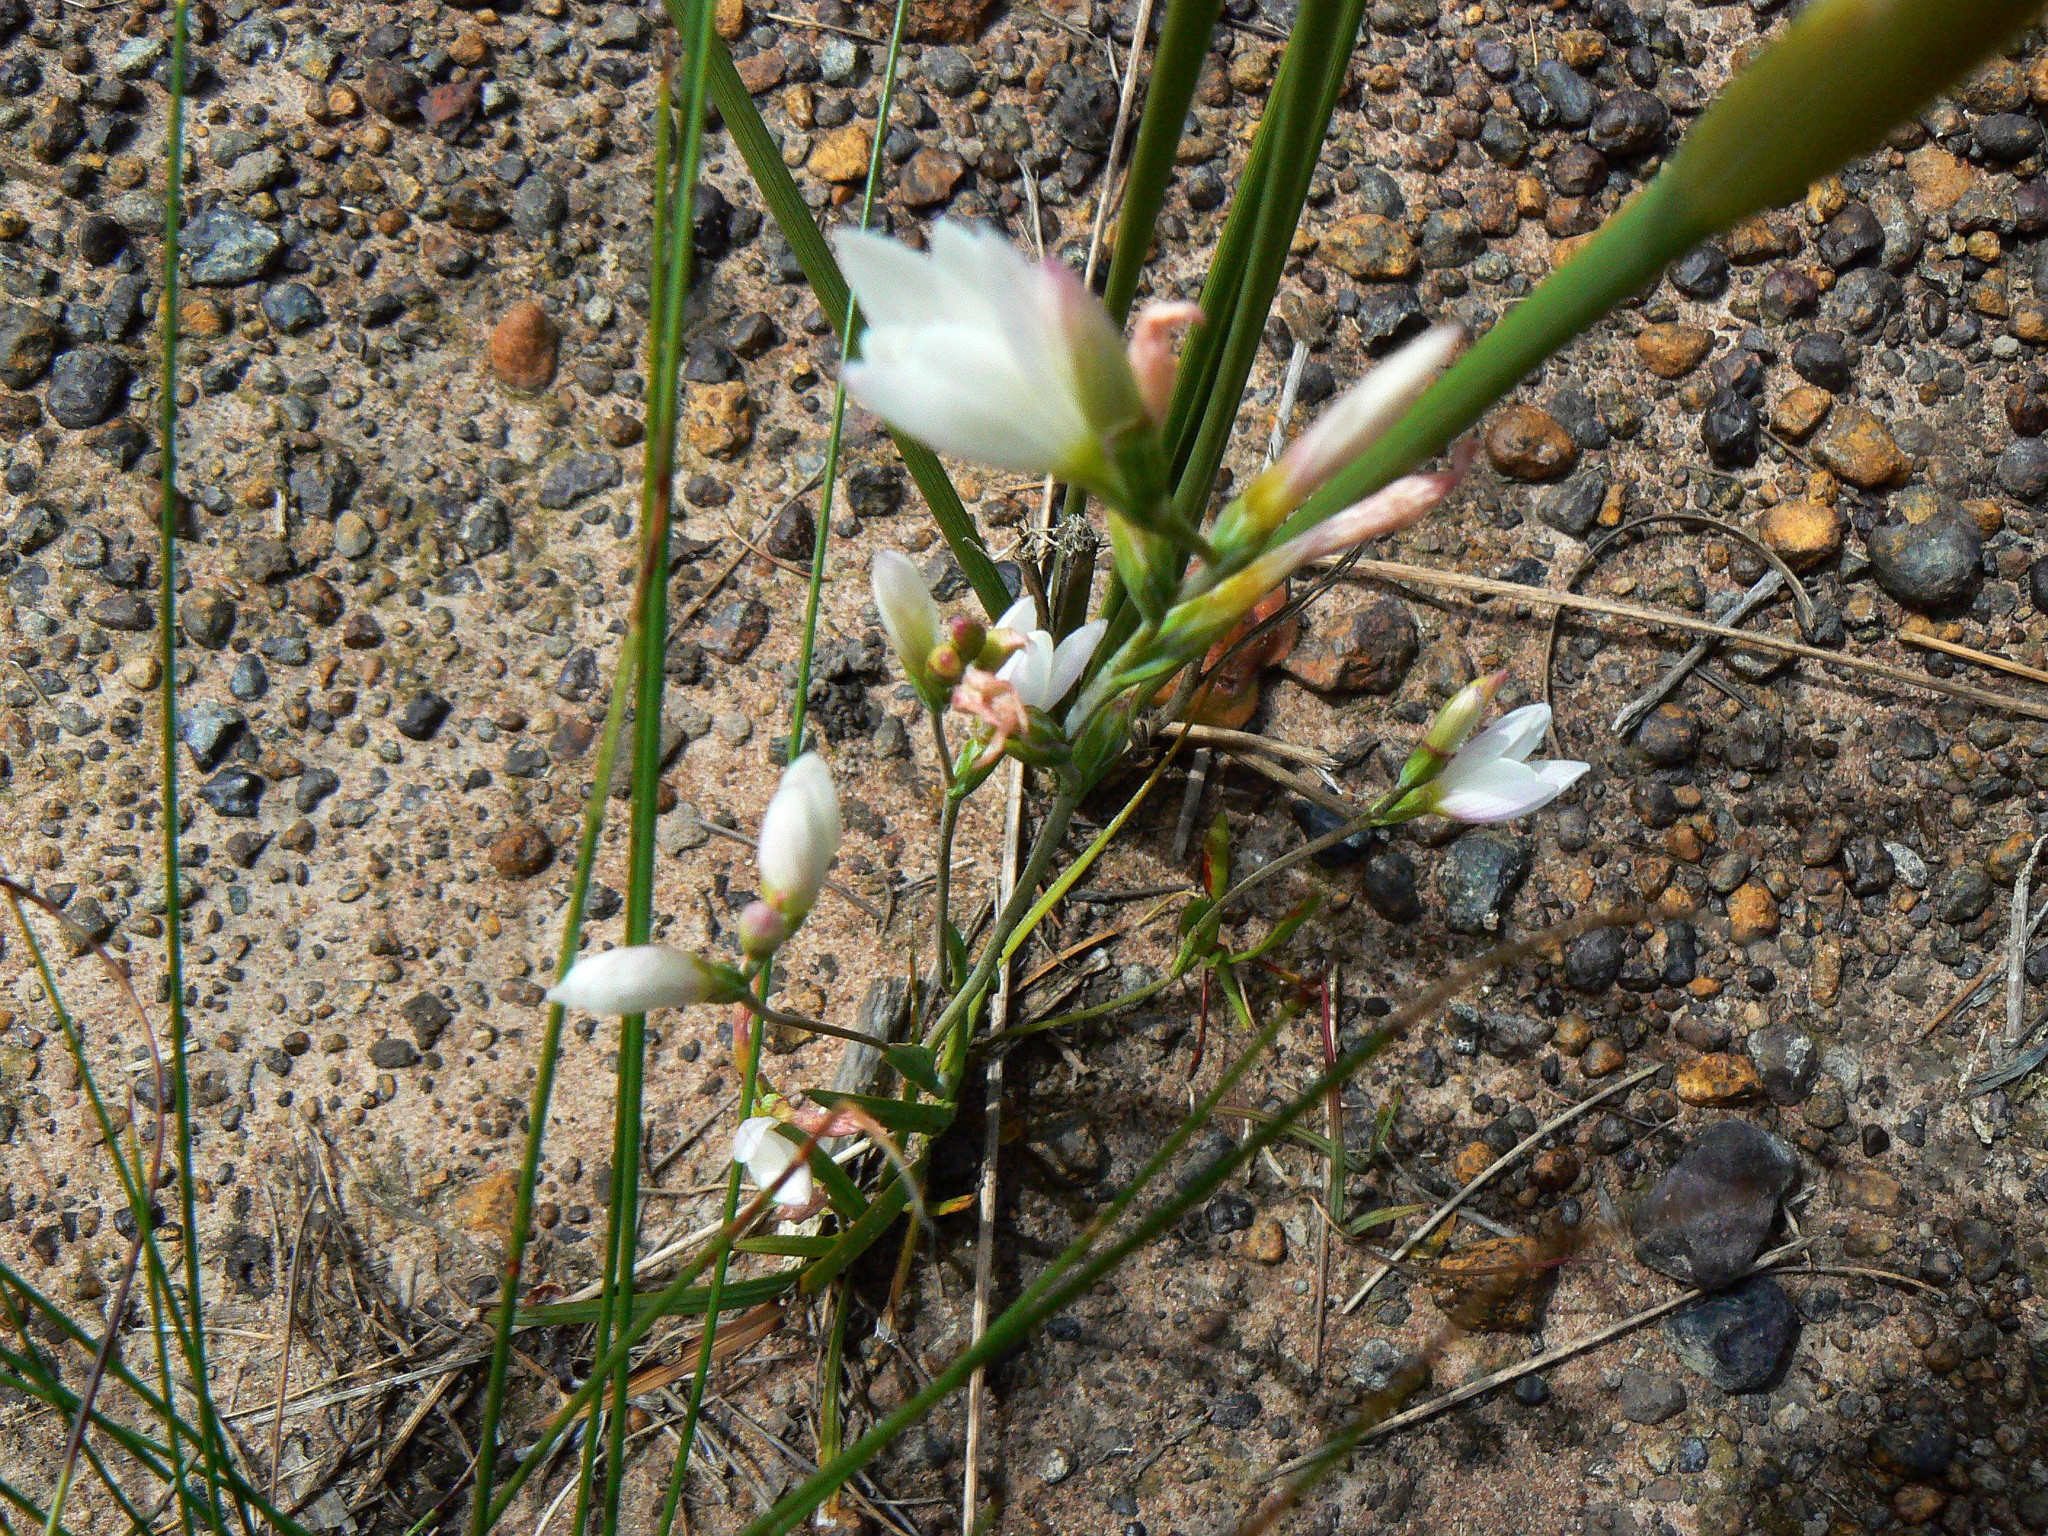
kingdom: Plantae
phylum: Tracheophyta
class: Liliopsida
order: Asparagales
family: Iridaceae
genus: Hesperantha
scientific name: Hesperantha falcata
